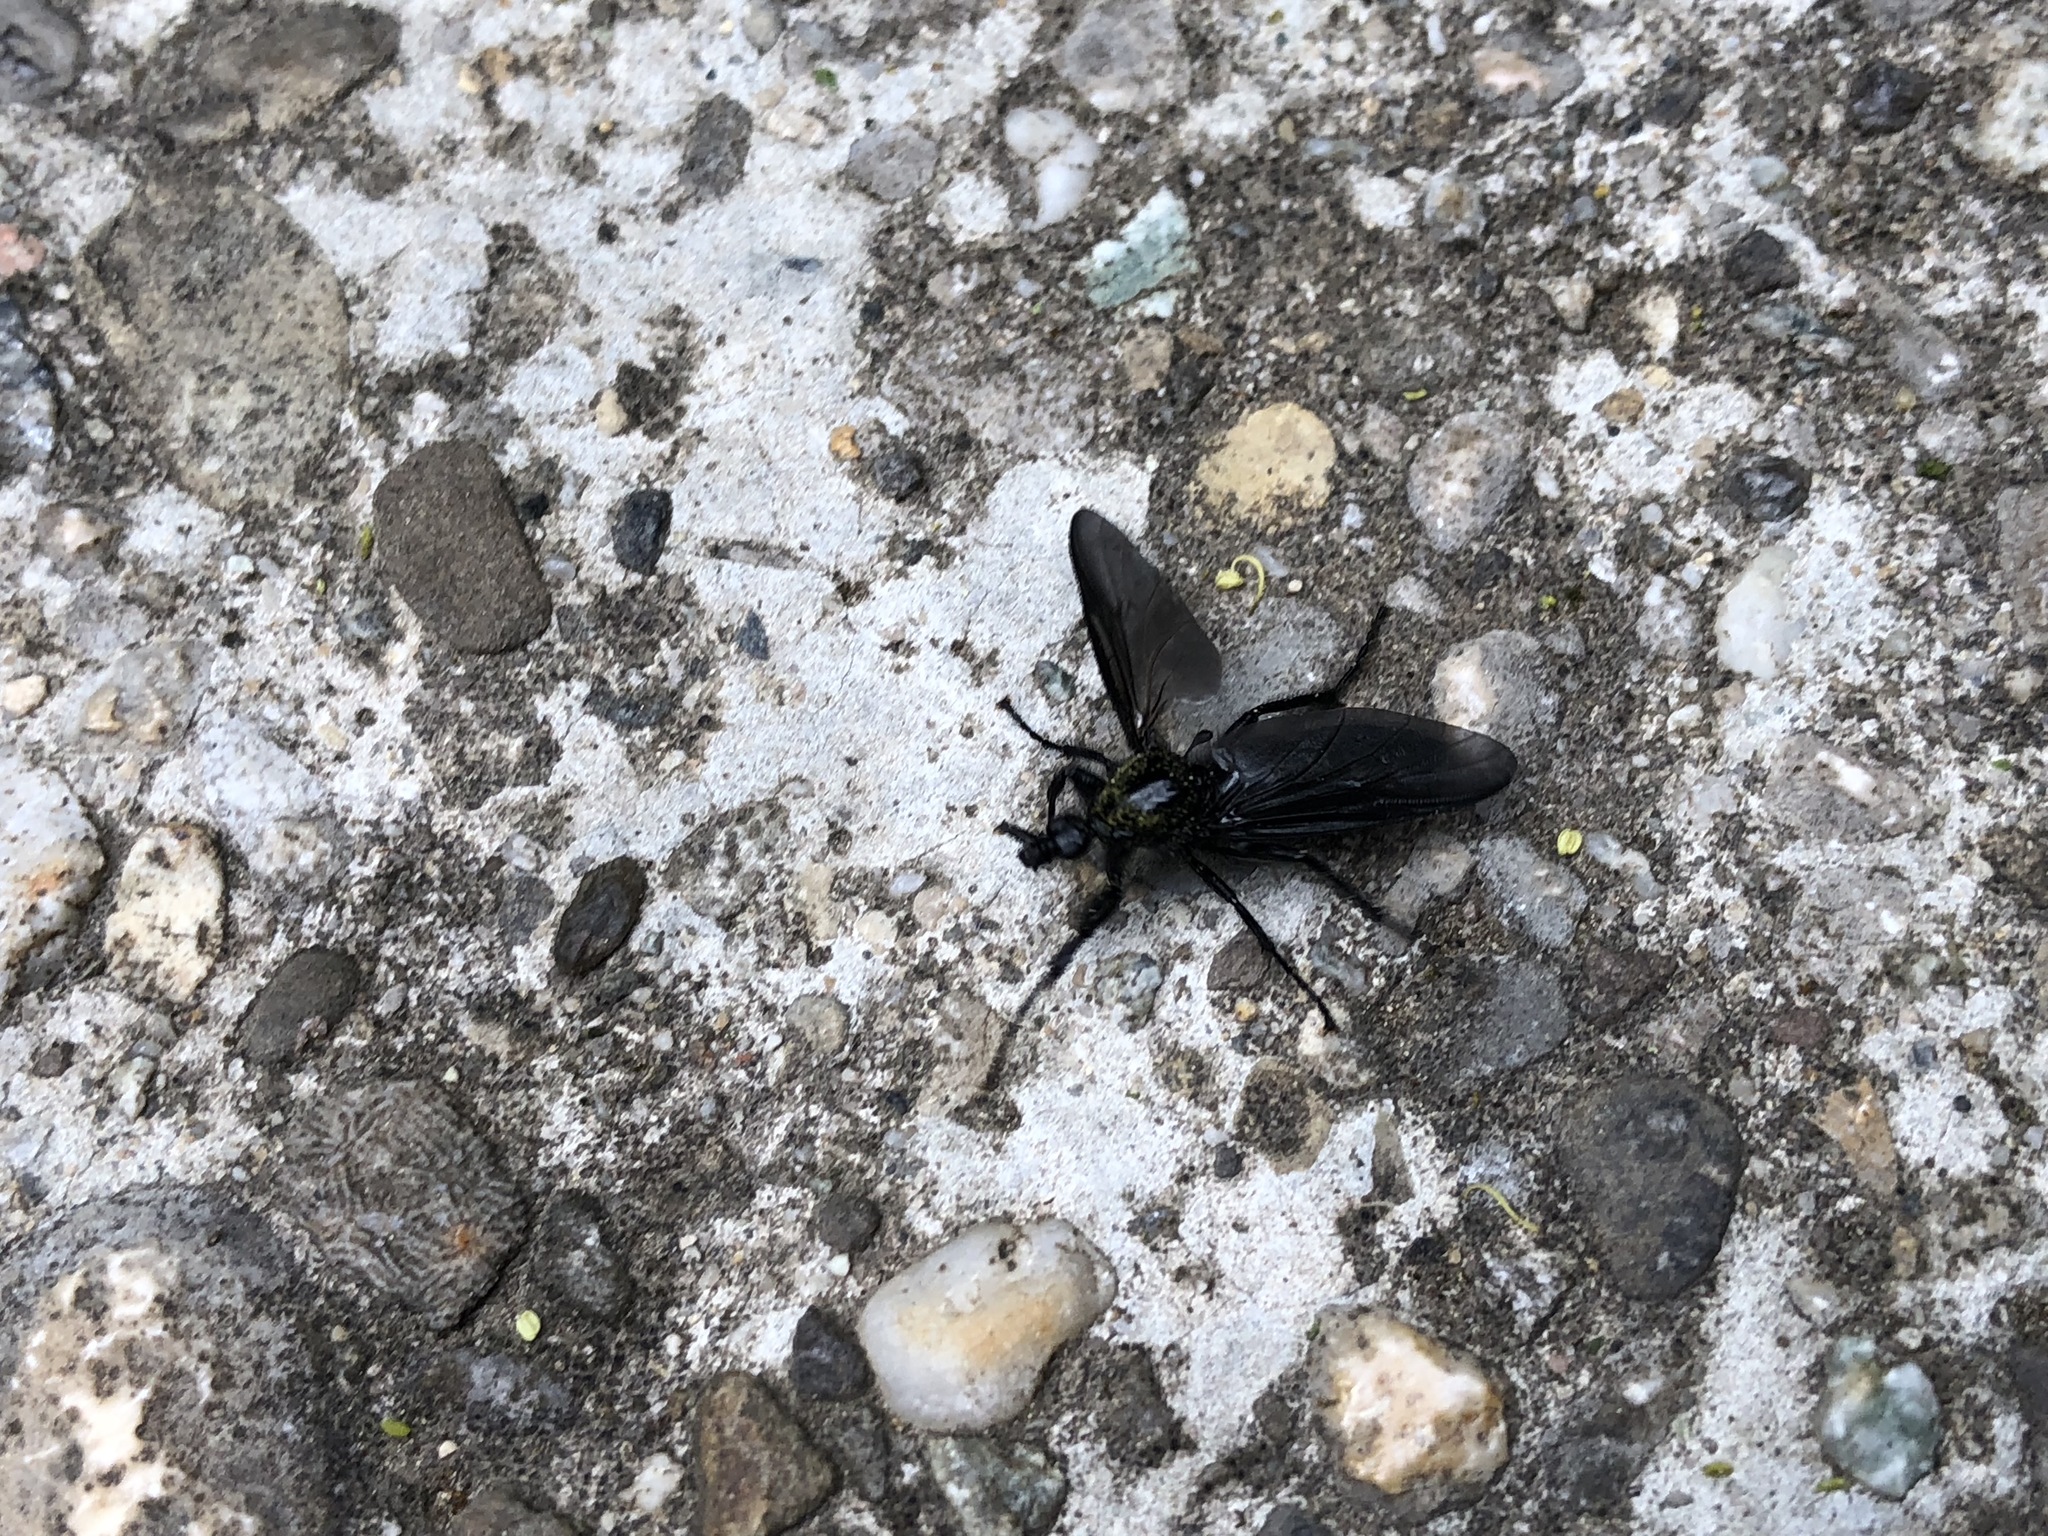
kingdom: Animalia
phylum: Arthropoda
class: Insecta
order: Diptera
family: Bibionidae
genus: Bibio
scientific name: Bibio marci
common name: St marks fly
